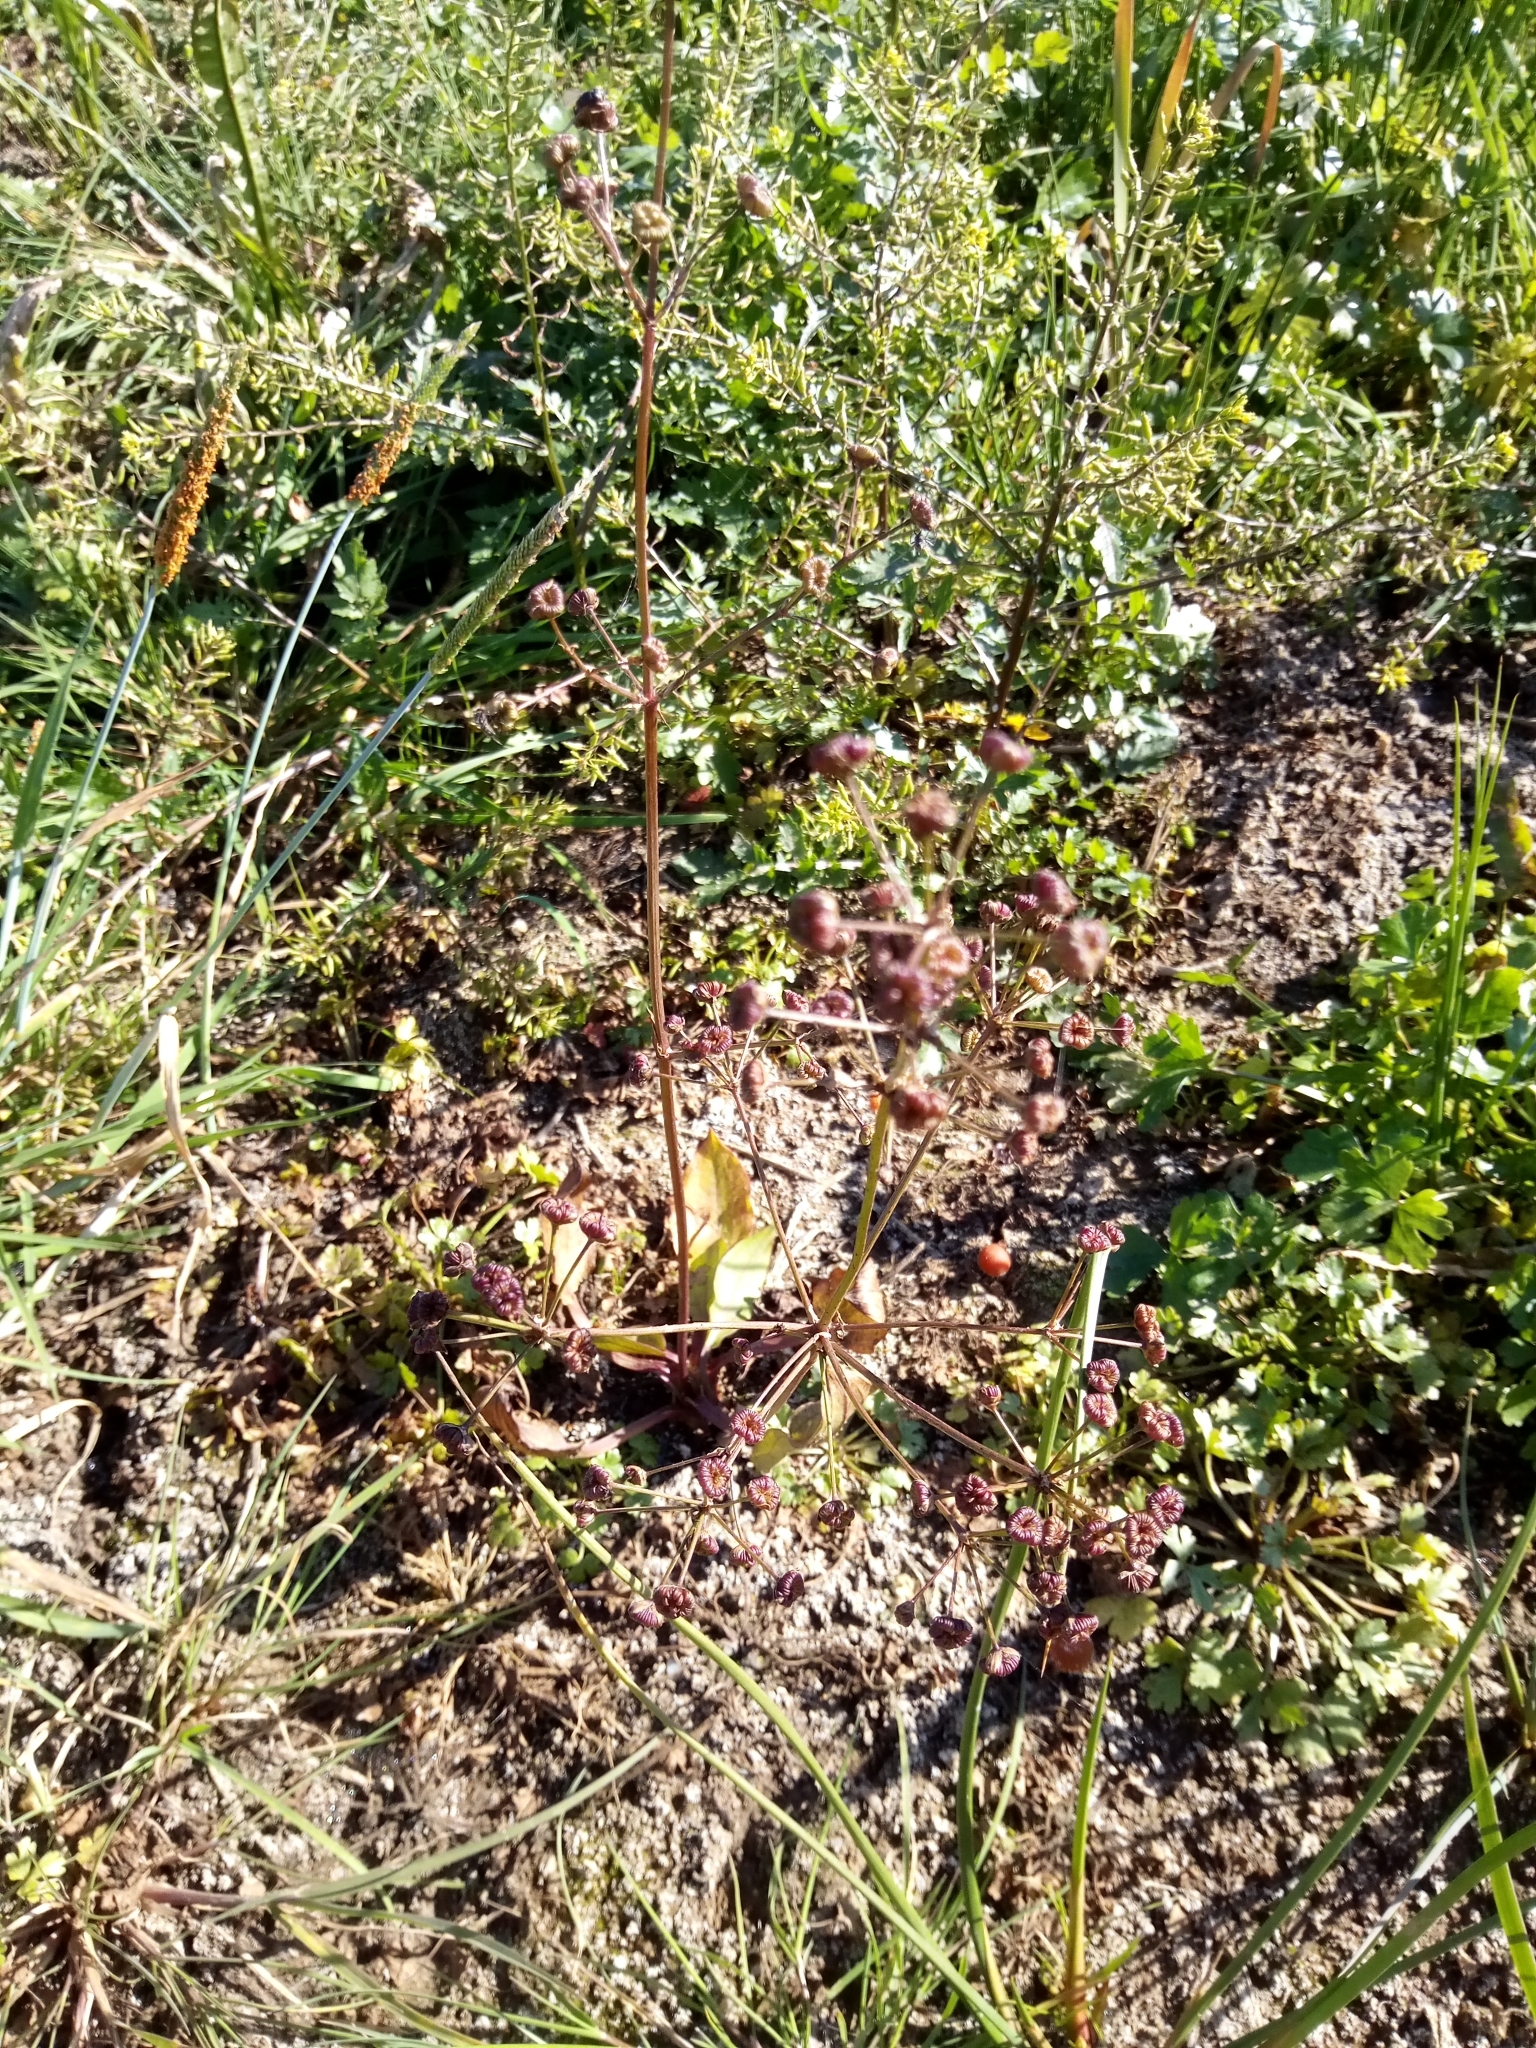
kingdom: Plantae
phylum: Tracheophyta
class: Liliopsida
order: Alismatales
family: Alismataceae
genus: Alisma
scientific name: Alisma plantago-aquatica
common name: Water-plantain
